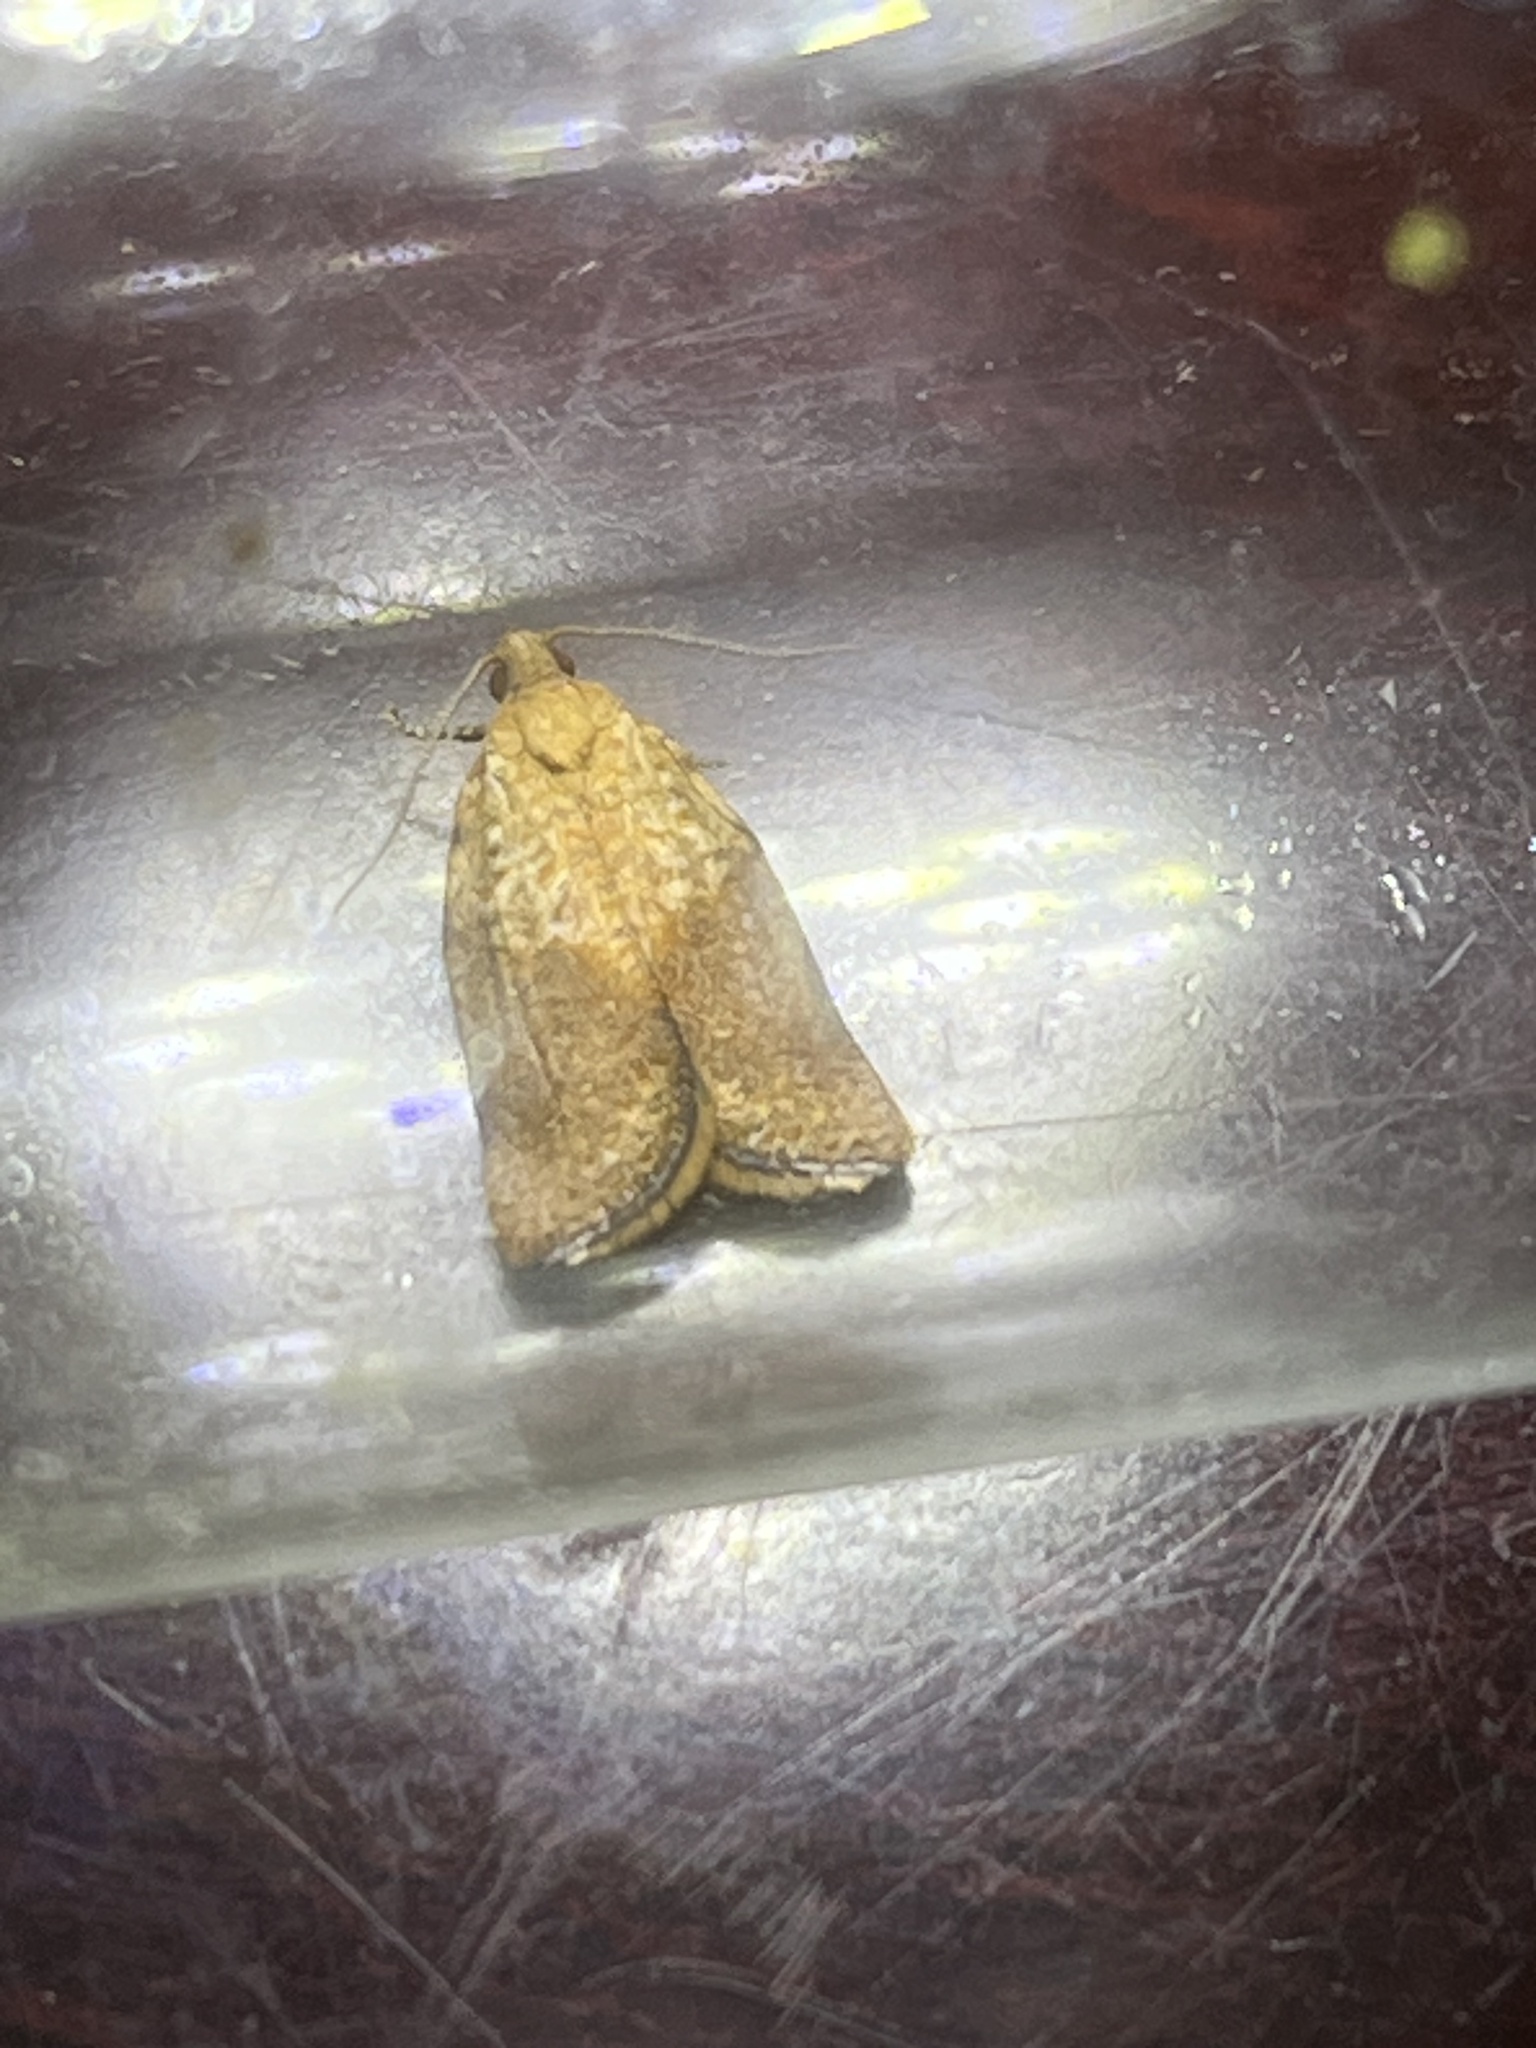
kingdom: Animalia
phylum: Arthropoda
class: Insecta
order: Lepidoptera
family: Tortricidae
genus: Epiphyas
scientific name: Epiphyas postvittana
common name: Light brown apple moth
